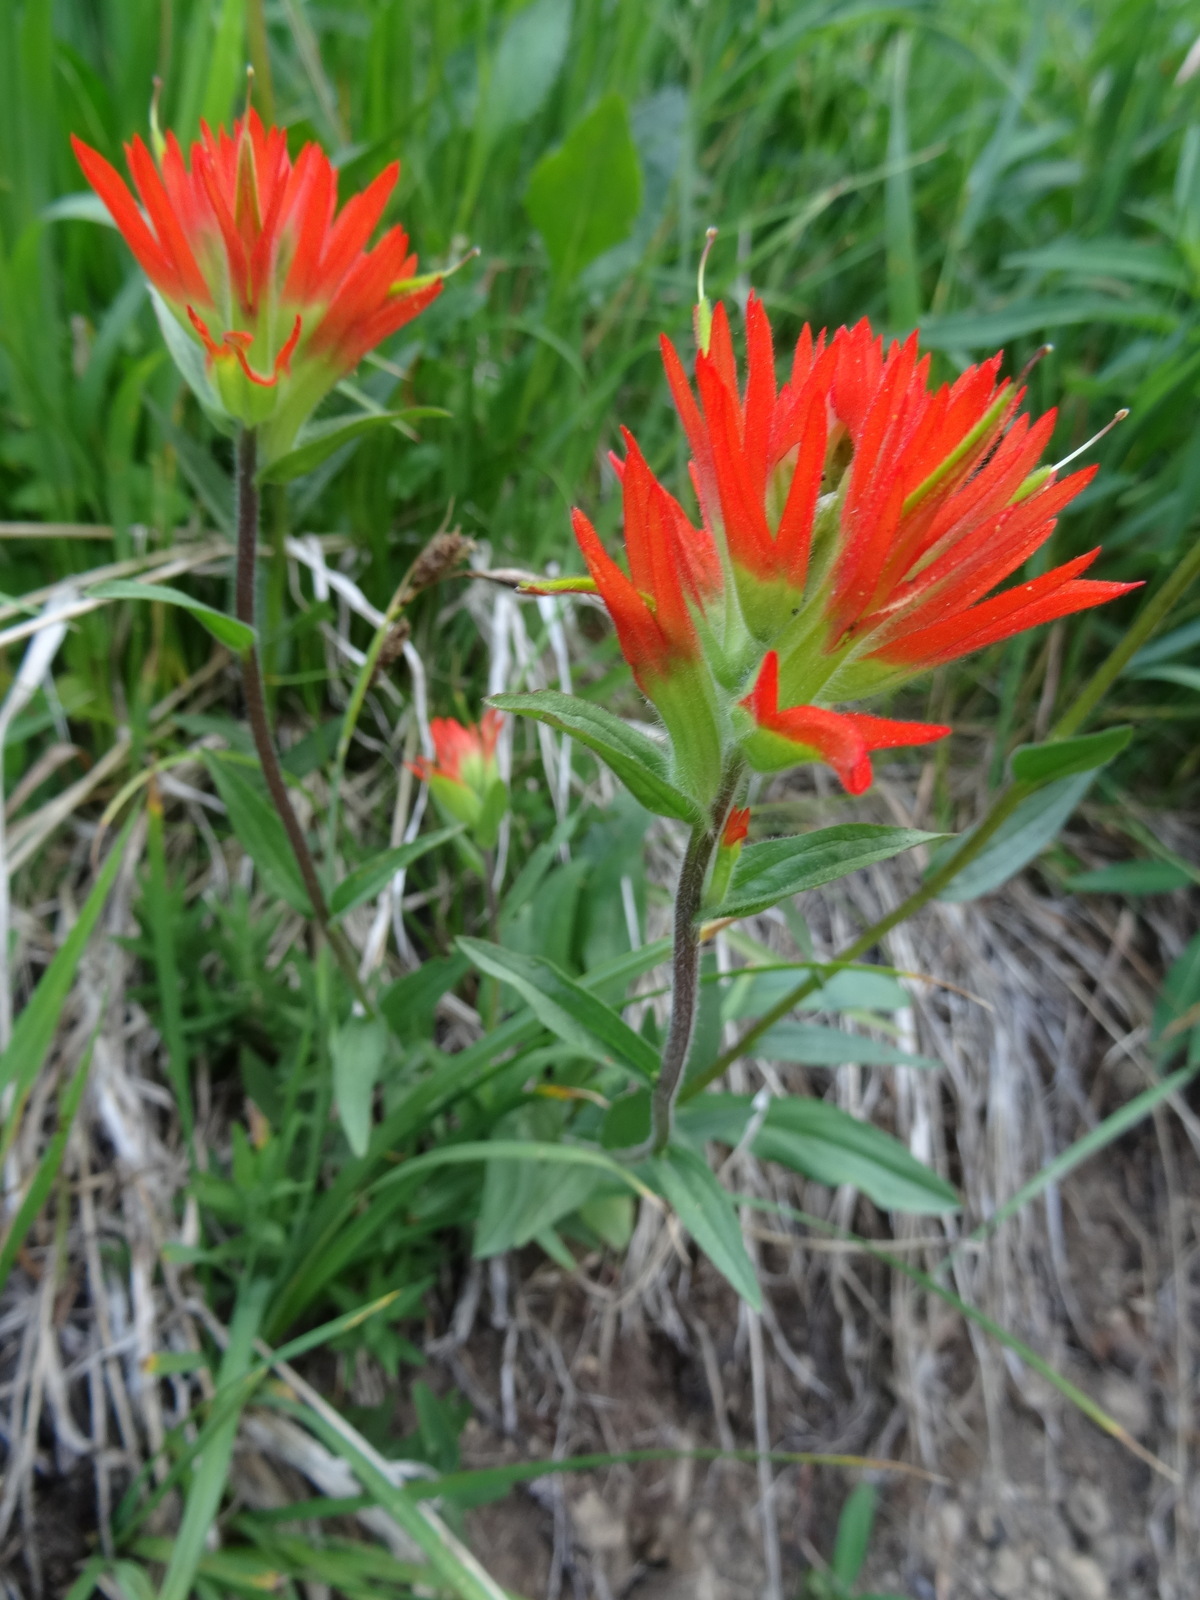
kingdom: Plantae
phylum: Tracheophyta
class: Magnoliopsida
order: Lamiales
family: Orobanchaceae
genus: Castilleja
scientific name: Castilleja suksdorfii
